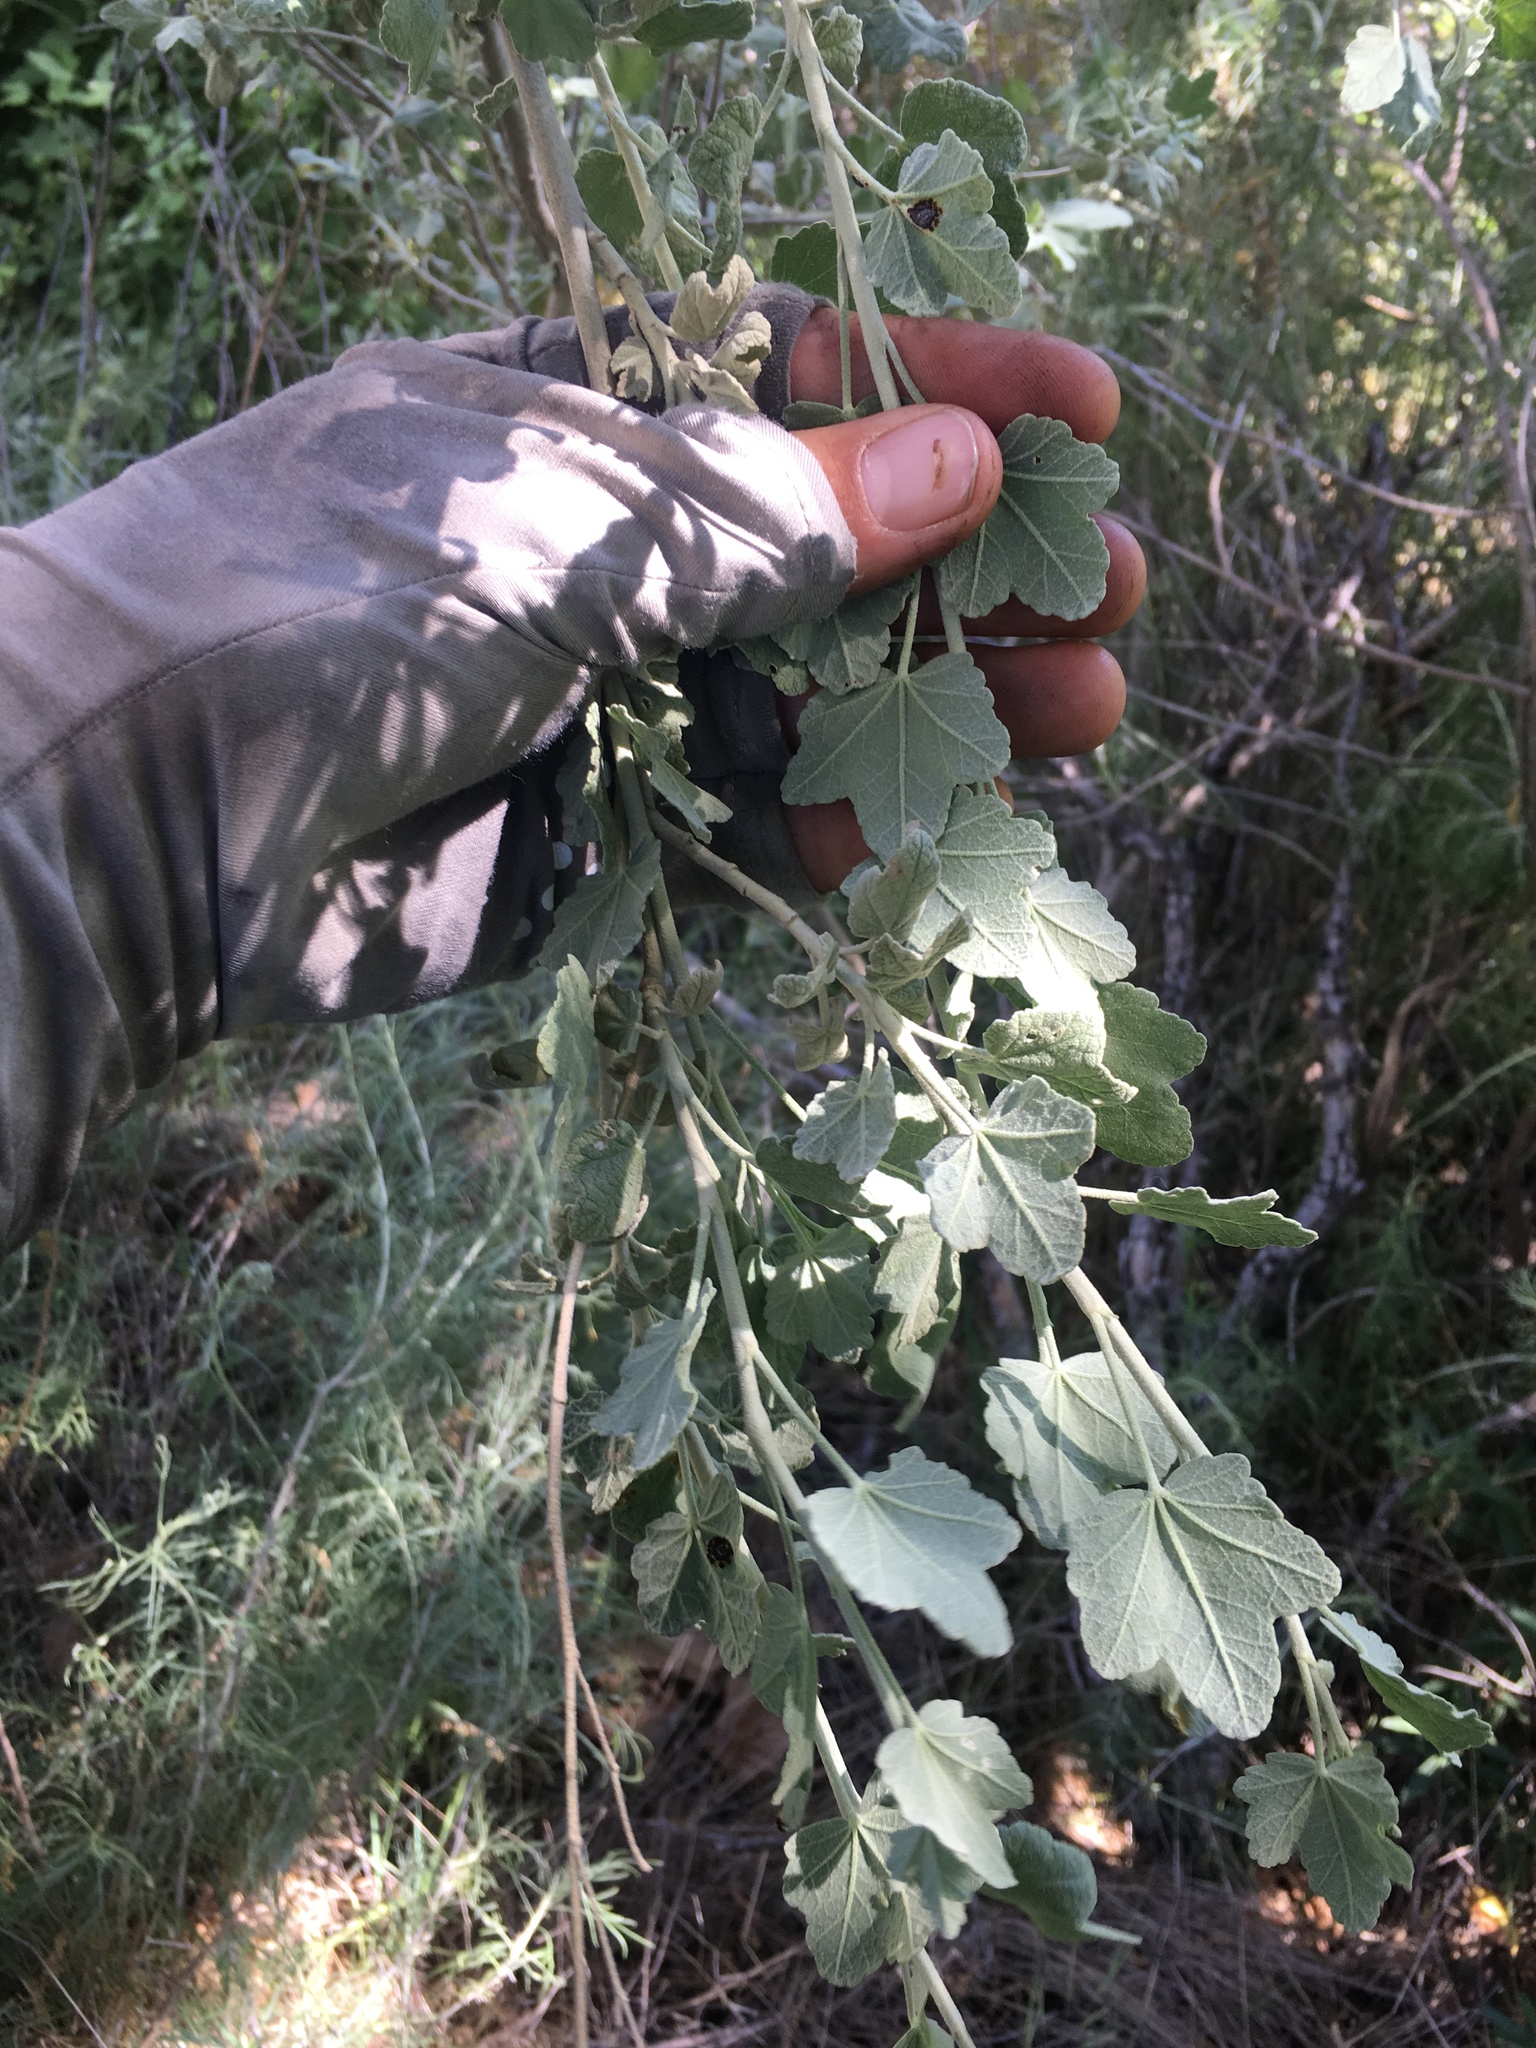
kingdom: Plantae
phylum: Tracheophyta
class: Magnoliopsida
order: Malvales
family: Malvaceae
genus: Malacothamnus
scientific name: Malacothamnus fasciculatus
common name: Sant cruz island bush-mallow
